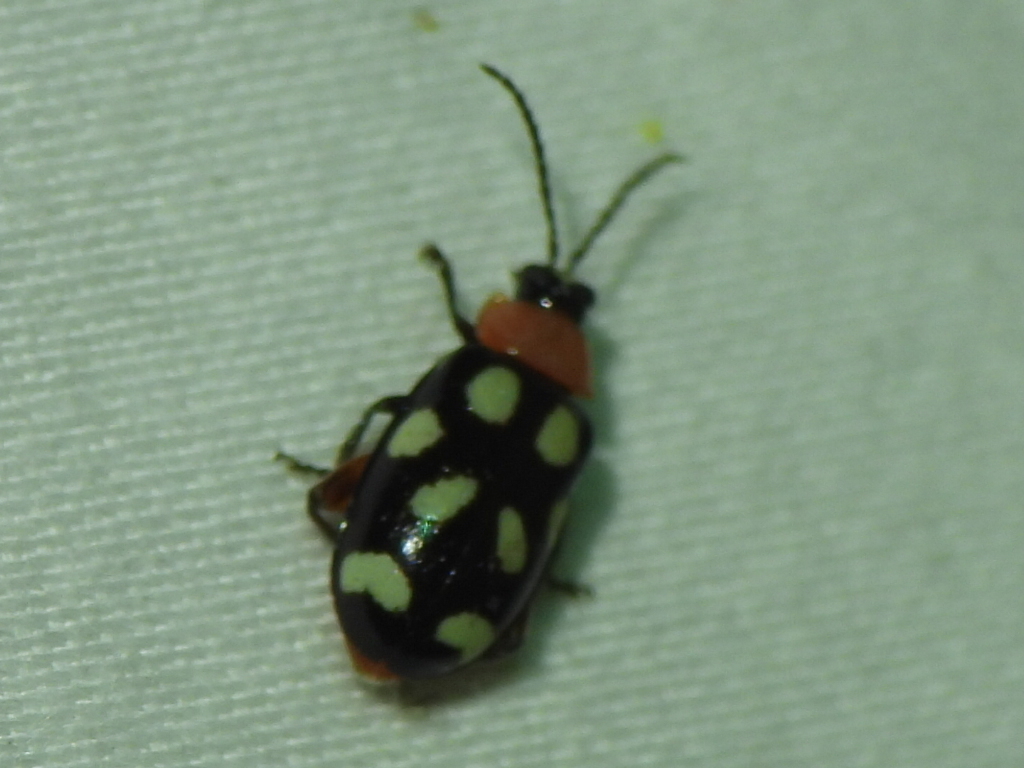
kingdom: Animalia
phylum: Arthropoda
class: Insecta
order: Coleoptera
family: Chrysomelidae
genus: Omophoita
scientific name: Omophoita cyanipennis
